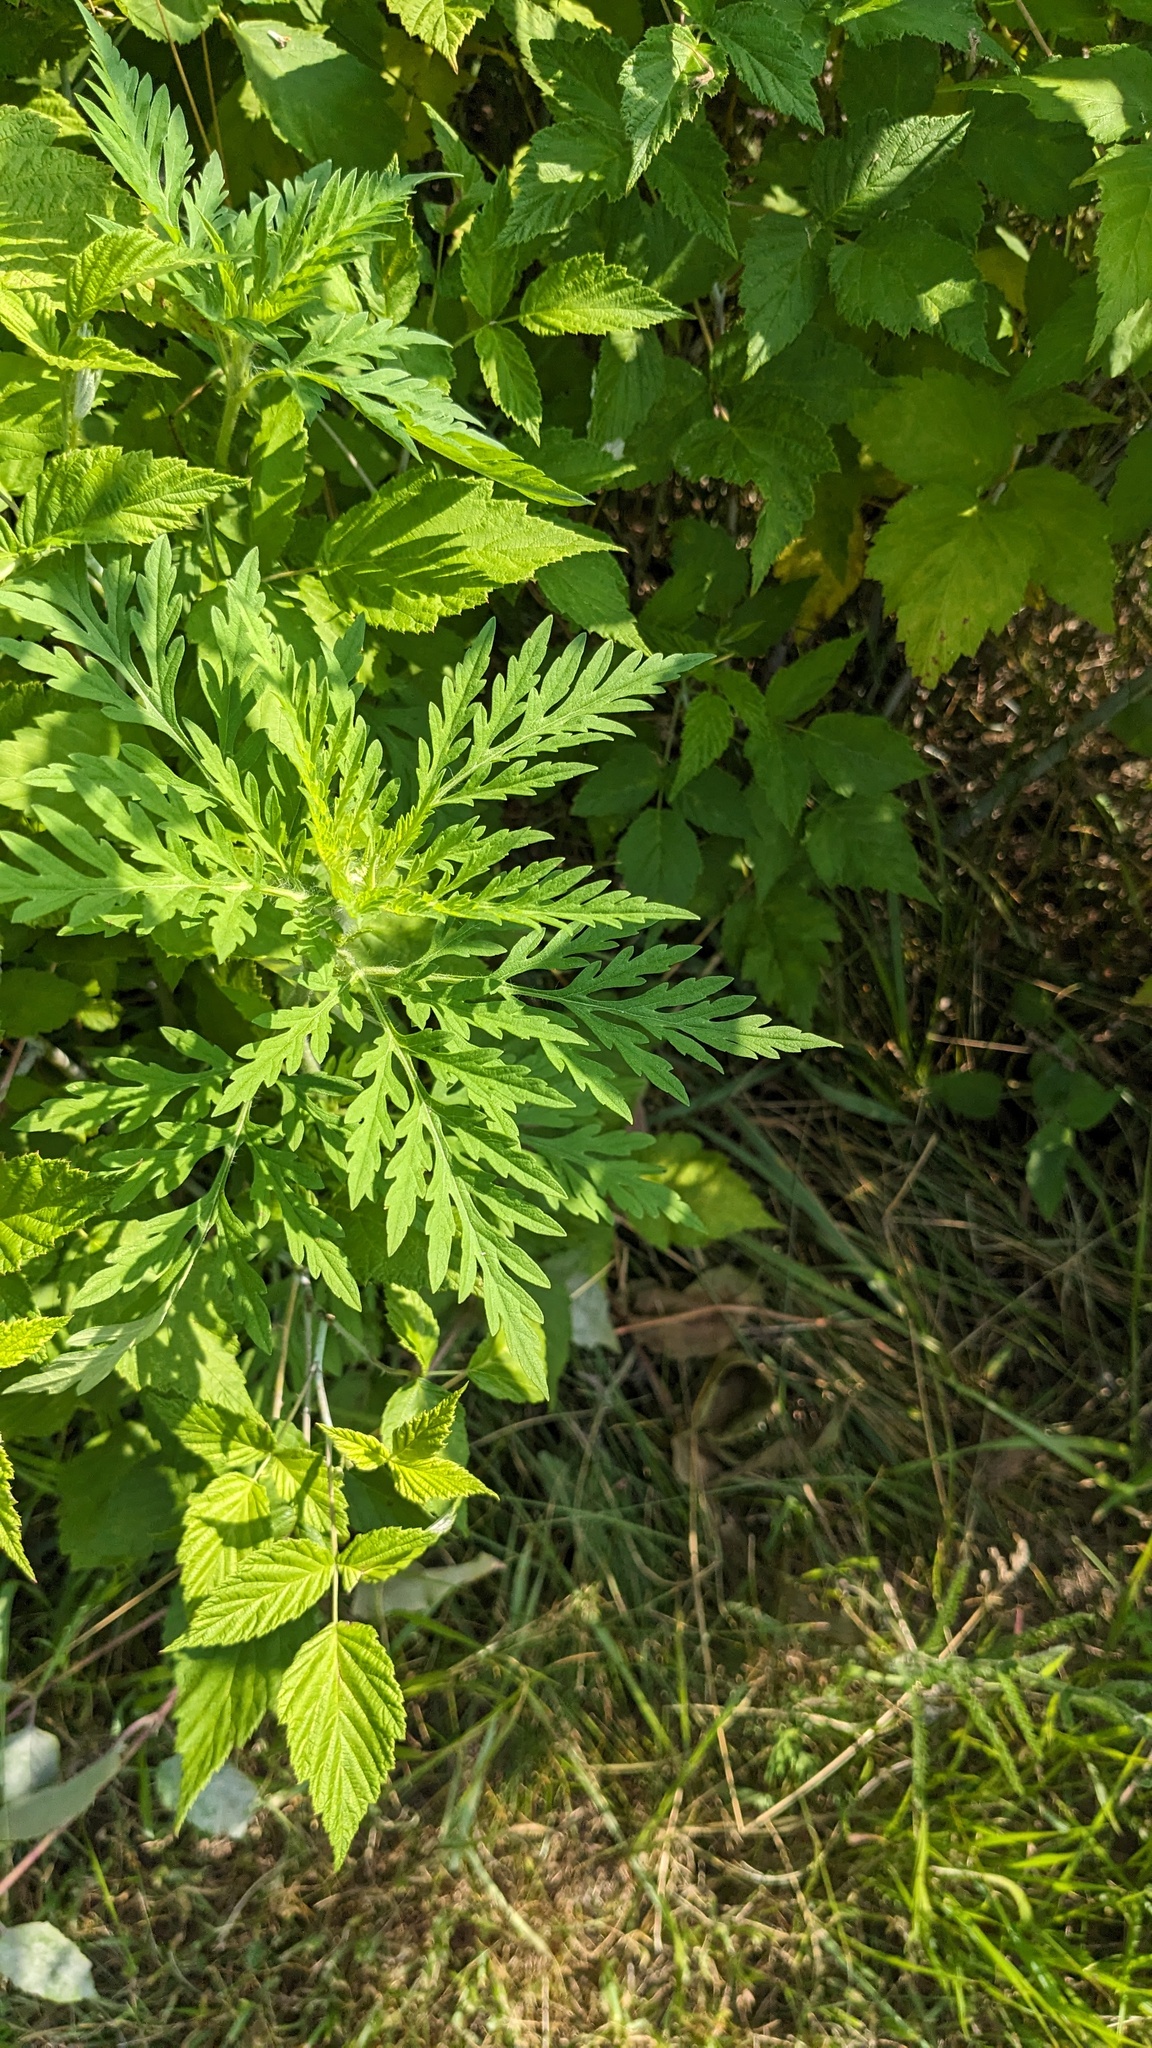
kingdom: Plantae
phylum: Tracheophyta
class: Magnoliopsida
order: Asterales
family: Asteraceae
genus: Ambrosia
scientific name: Ambrosia artemisiifolia
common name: Annual ragweed
